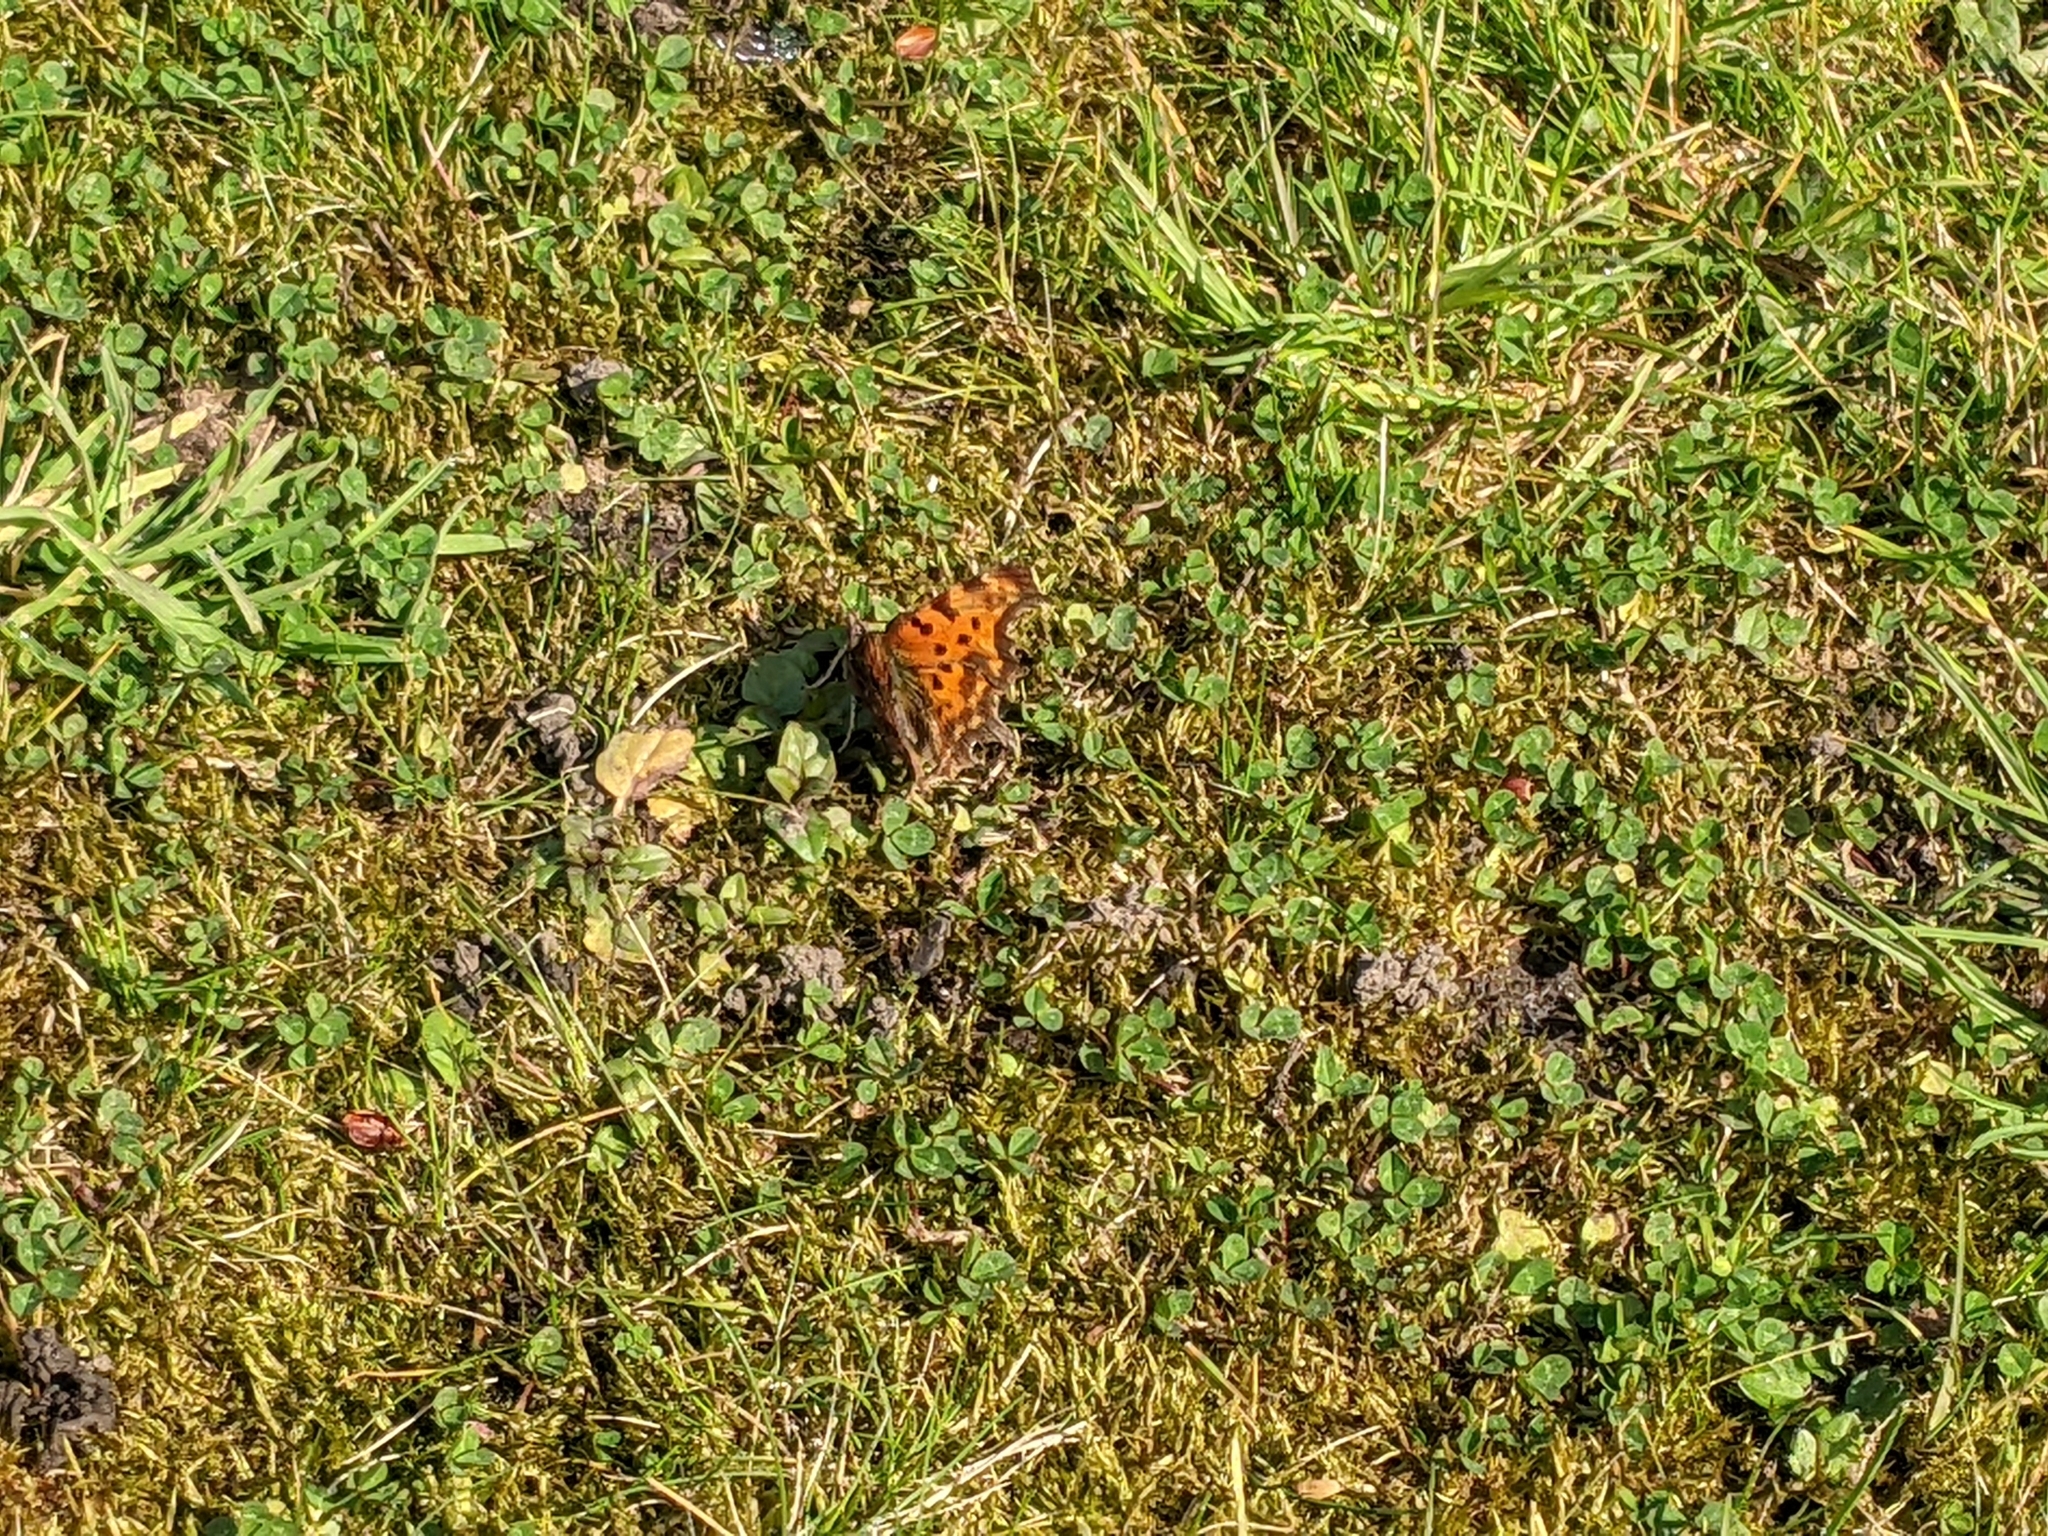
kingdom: Animalia
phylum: Arthropoda
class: Insecta
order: Lepidoptera
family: Nymphalidae
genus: Polygonia
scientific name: Polygonia c-album
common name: Comma
